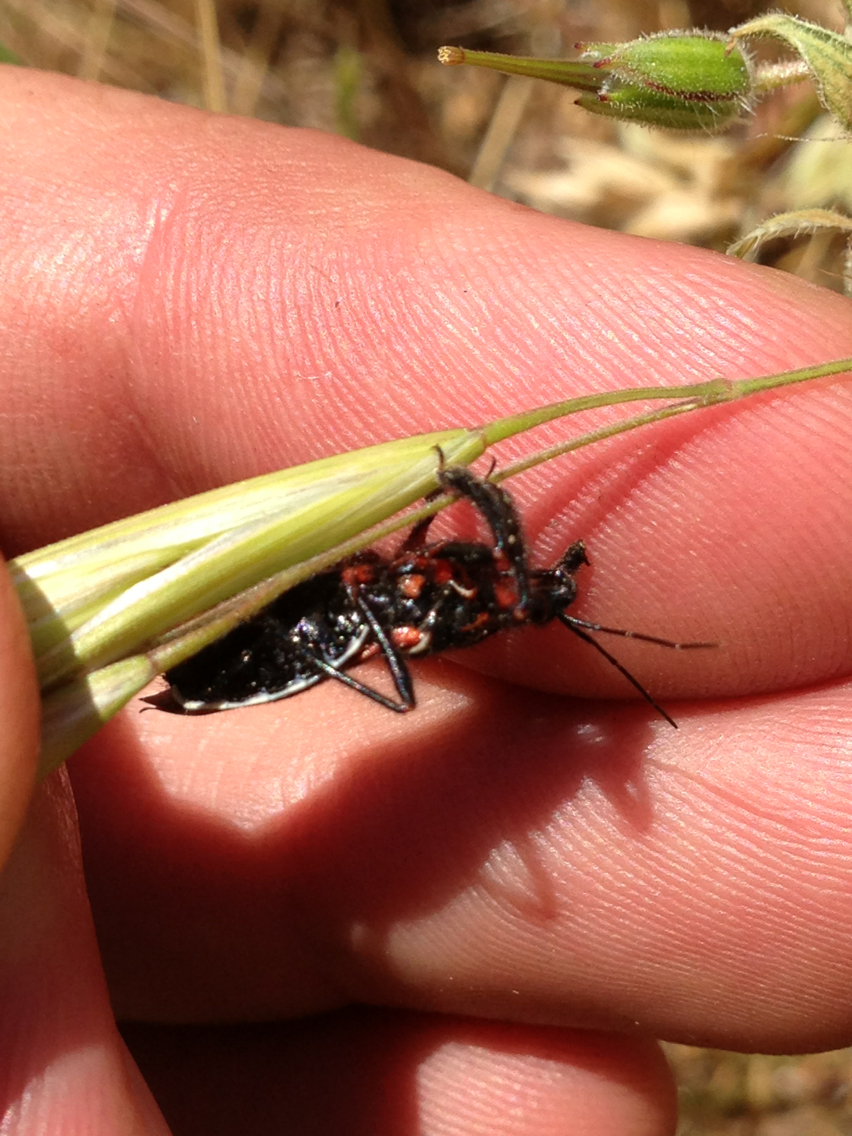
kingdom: Animalia
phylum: Arthropoda
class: Insecta
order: Hemiptera
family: Reduviidae
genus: Apiomerus
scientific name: Apiomerus californicus
